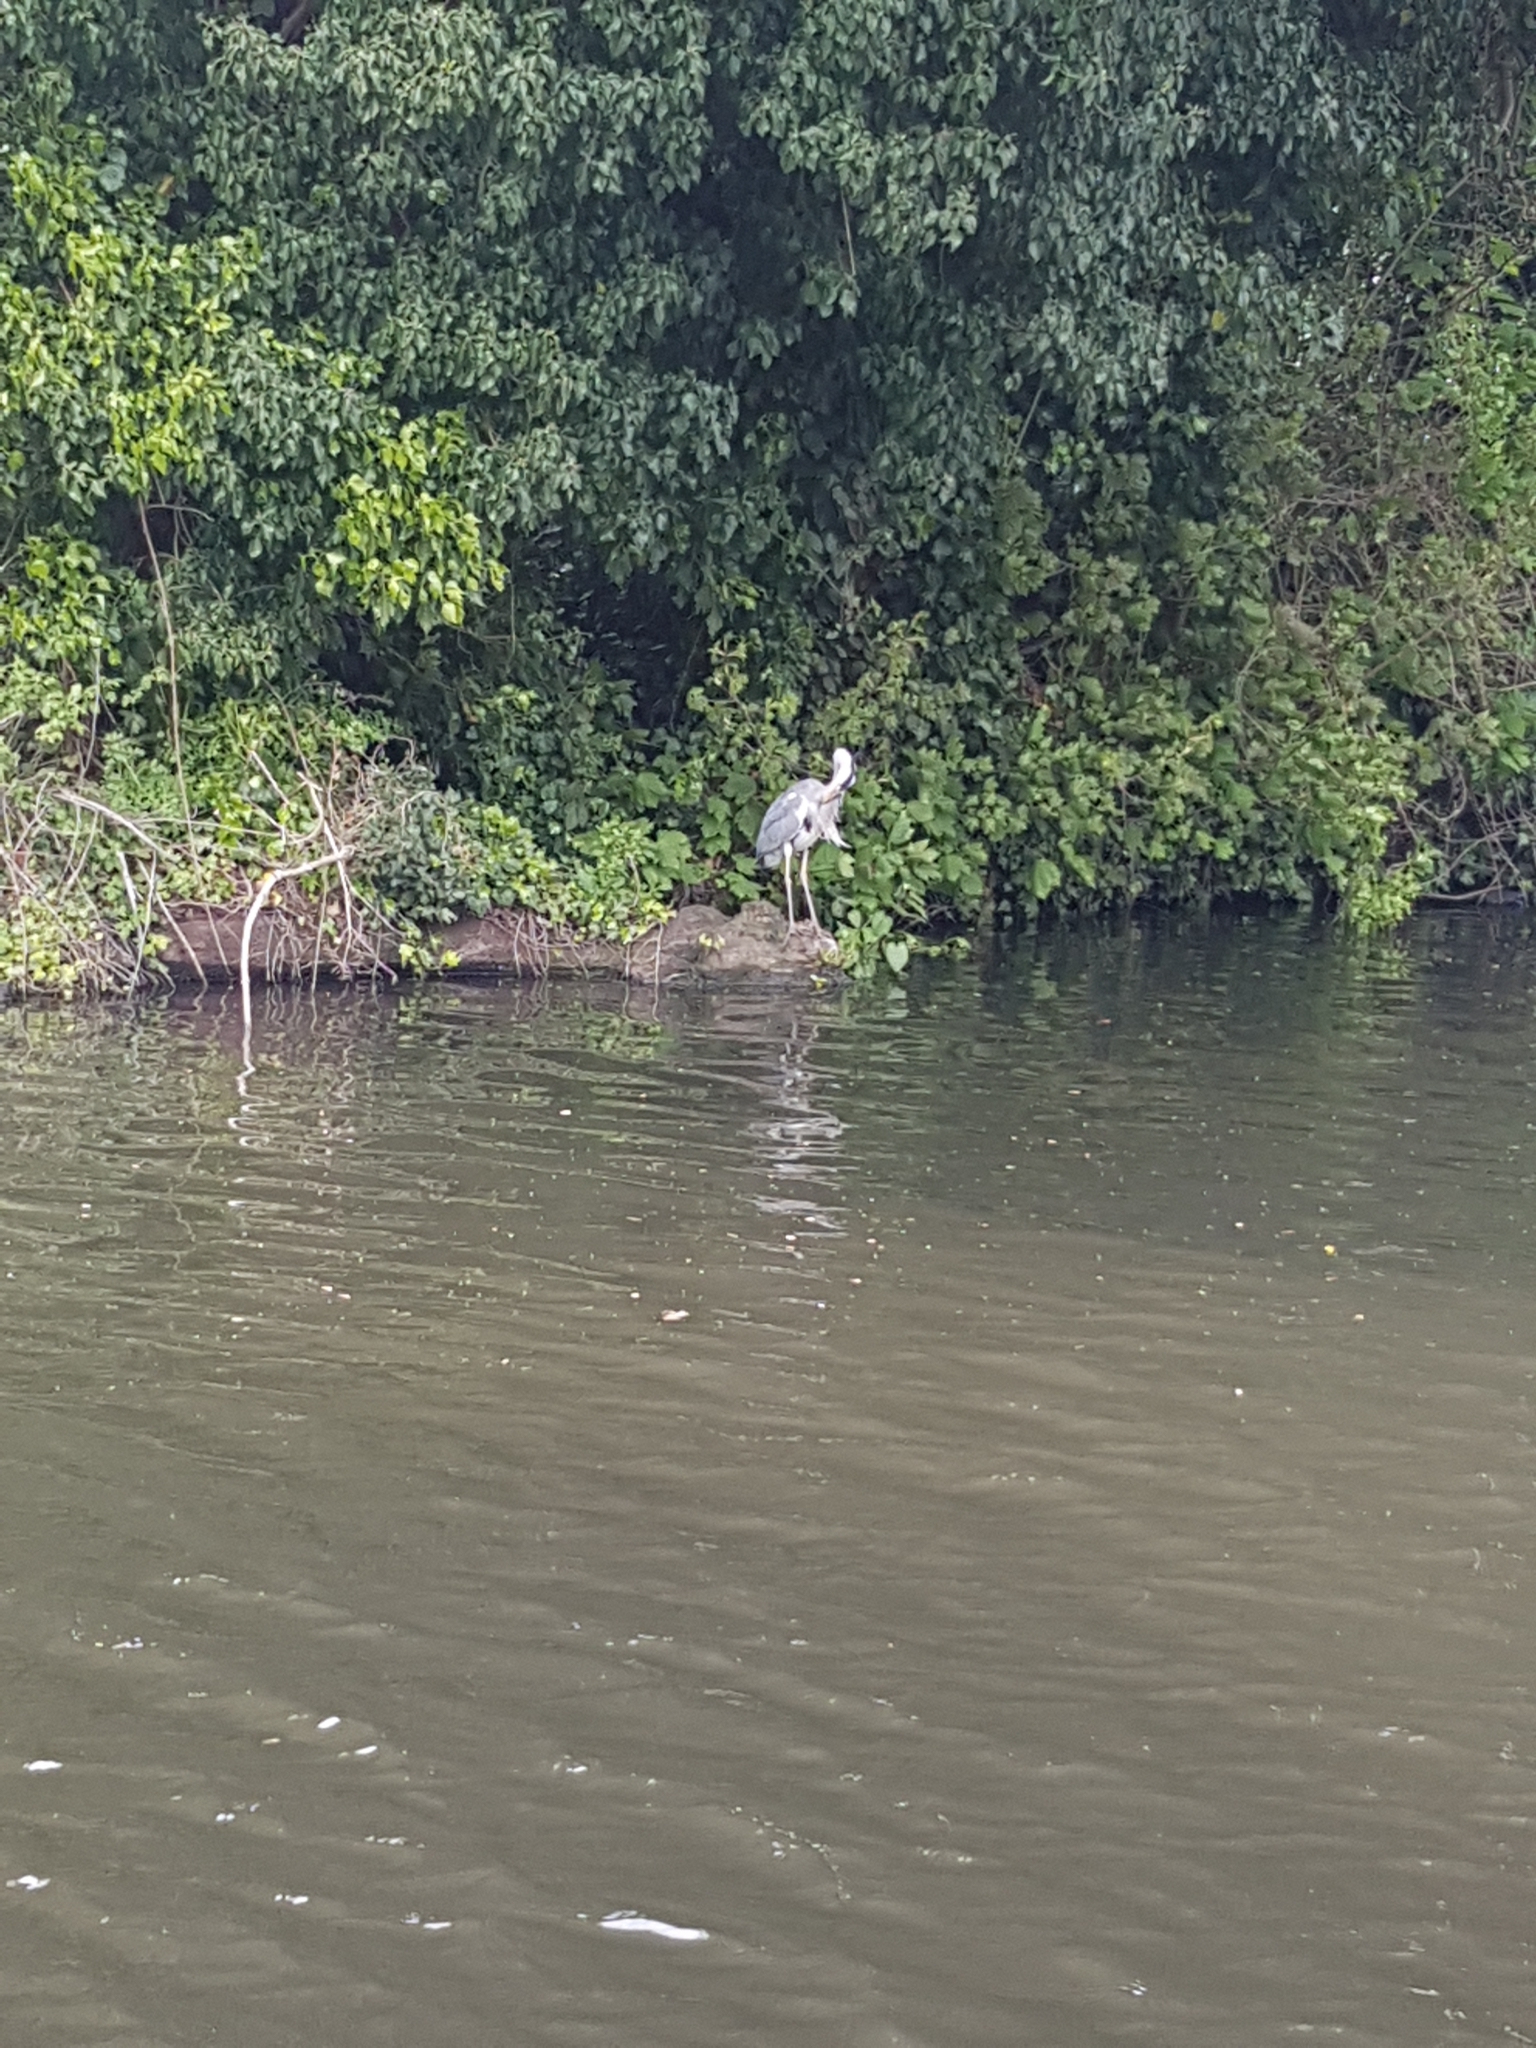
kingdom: Animalia
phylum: Chordata
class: Aves
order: Pelecaniformes
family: Ardeidae
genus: Ardea
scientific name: Ardea cinerea
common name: Grey heron
